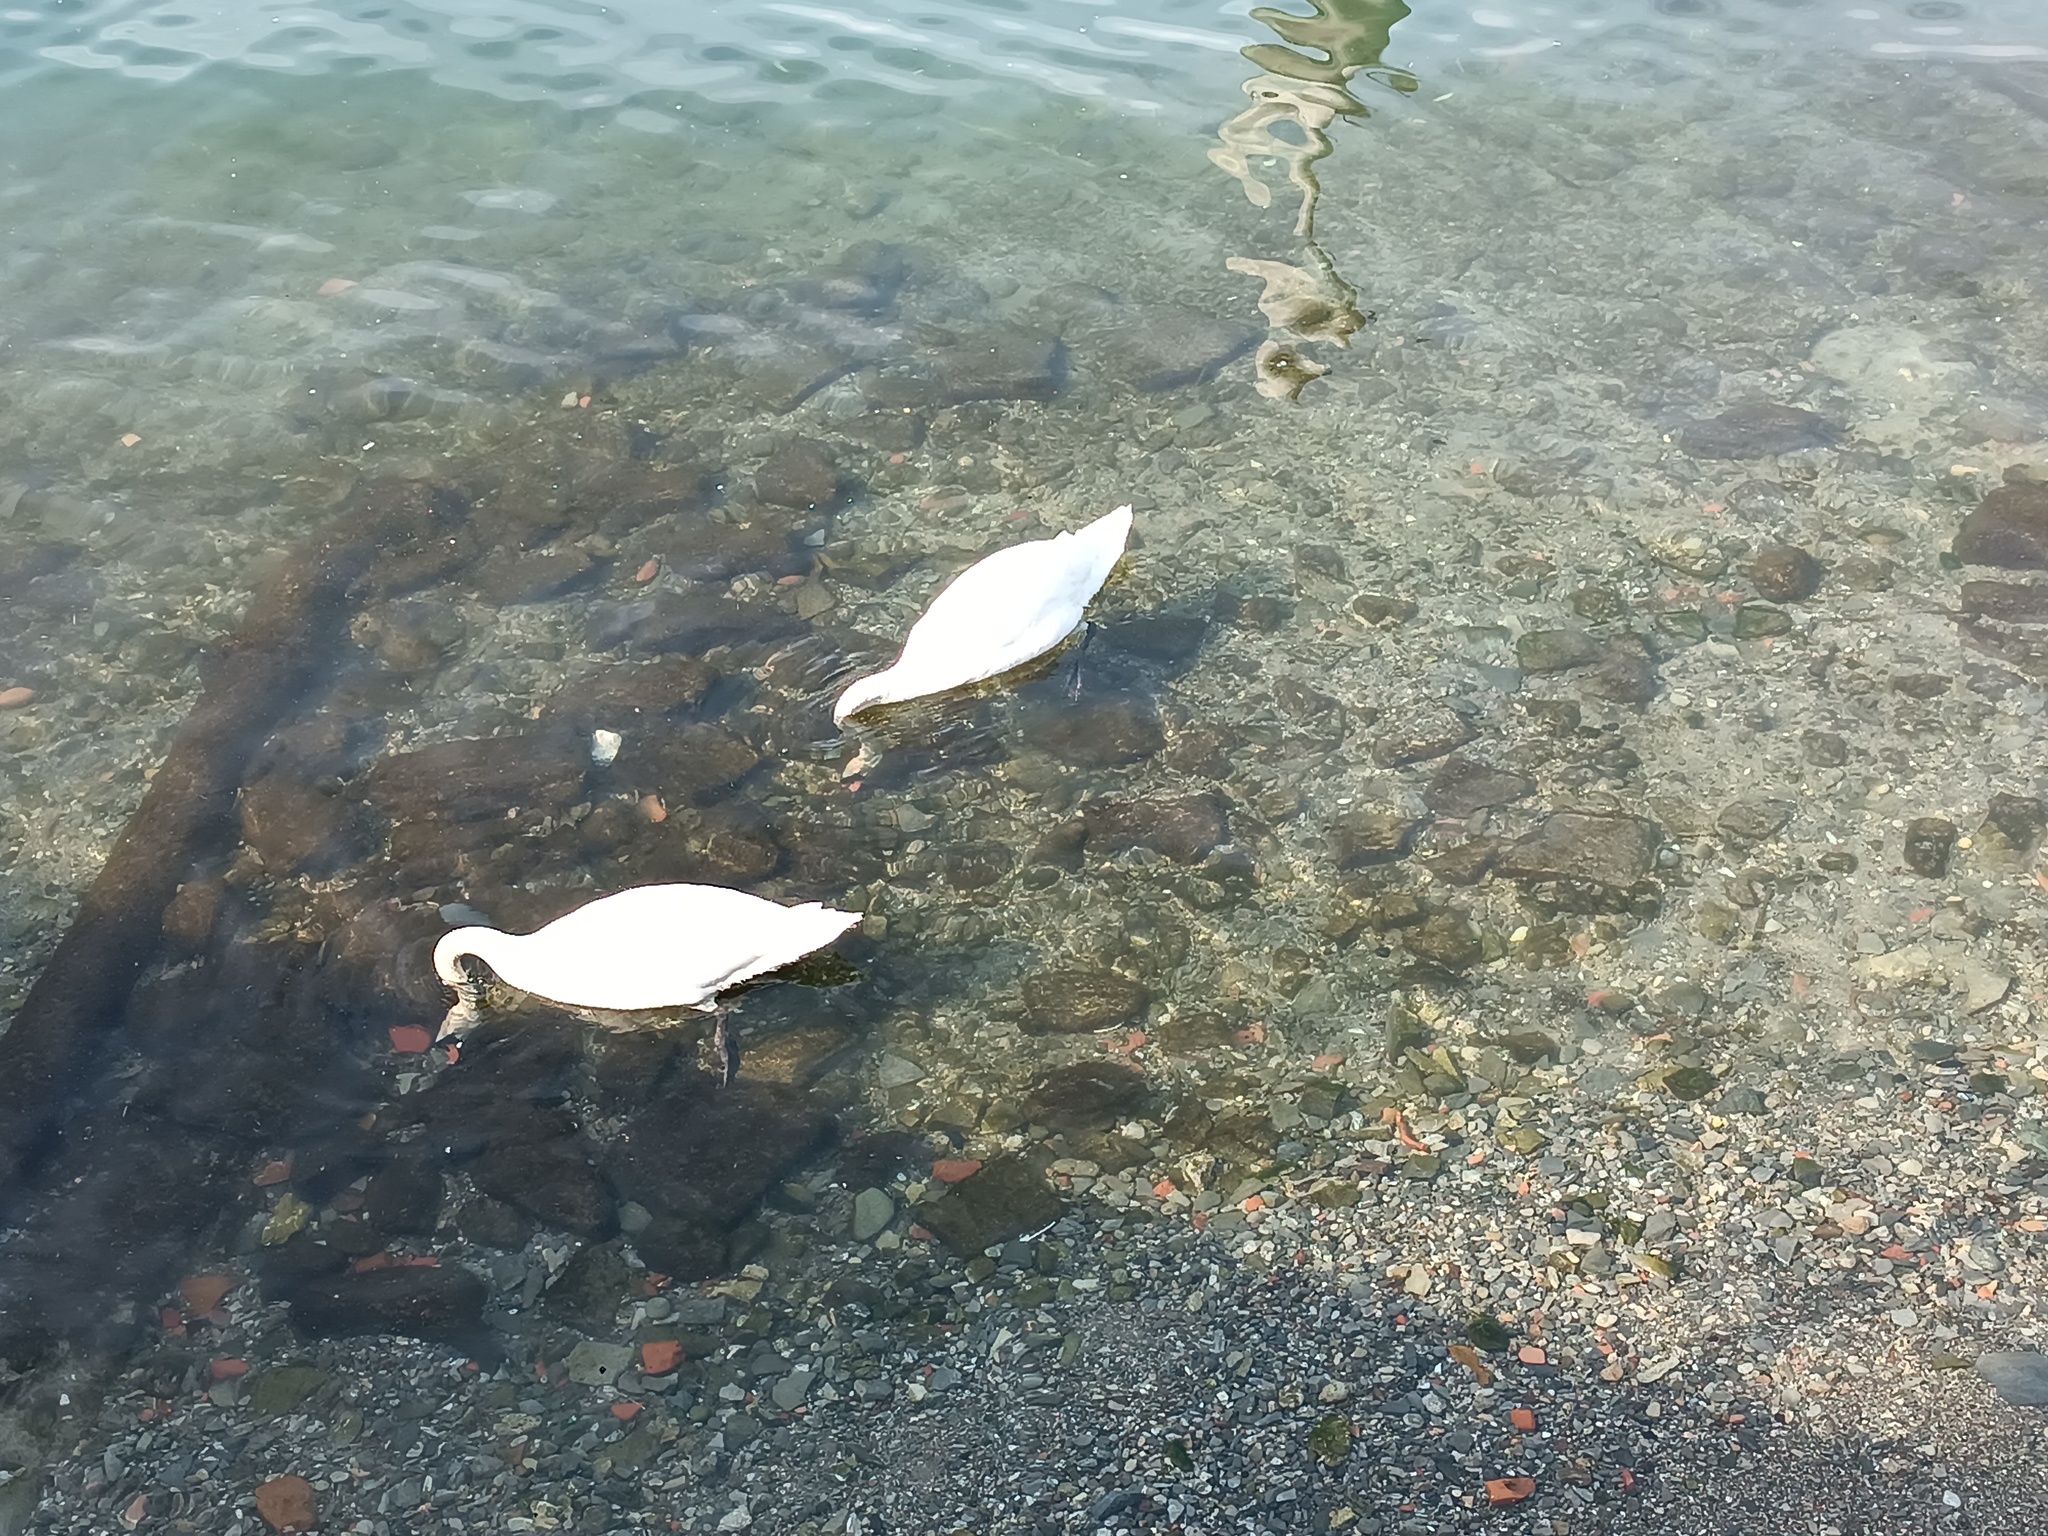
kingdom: Animalia
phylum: Chordata
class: Aves
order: Anseriformes
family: Anatidae
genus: Cygnus
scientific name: Cygnus olor
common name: Mute swan
